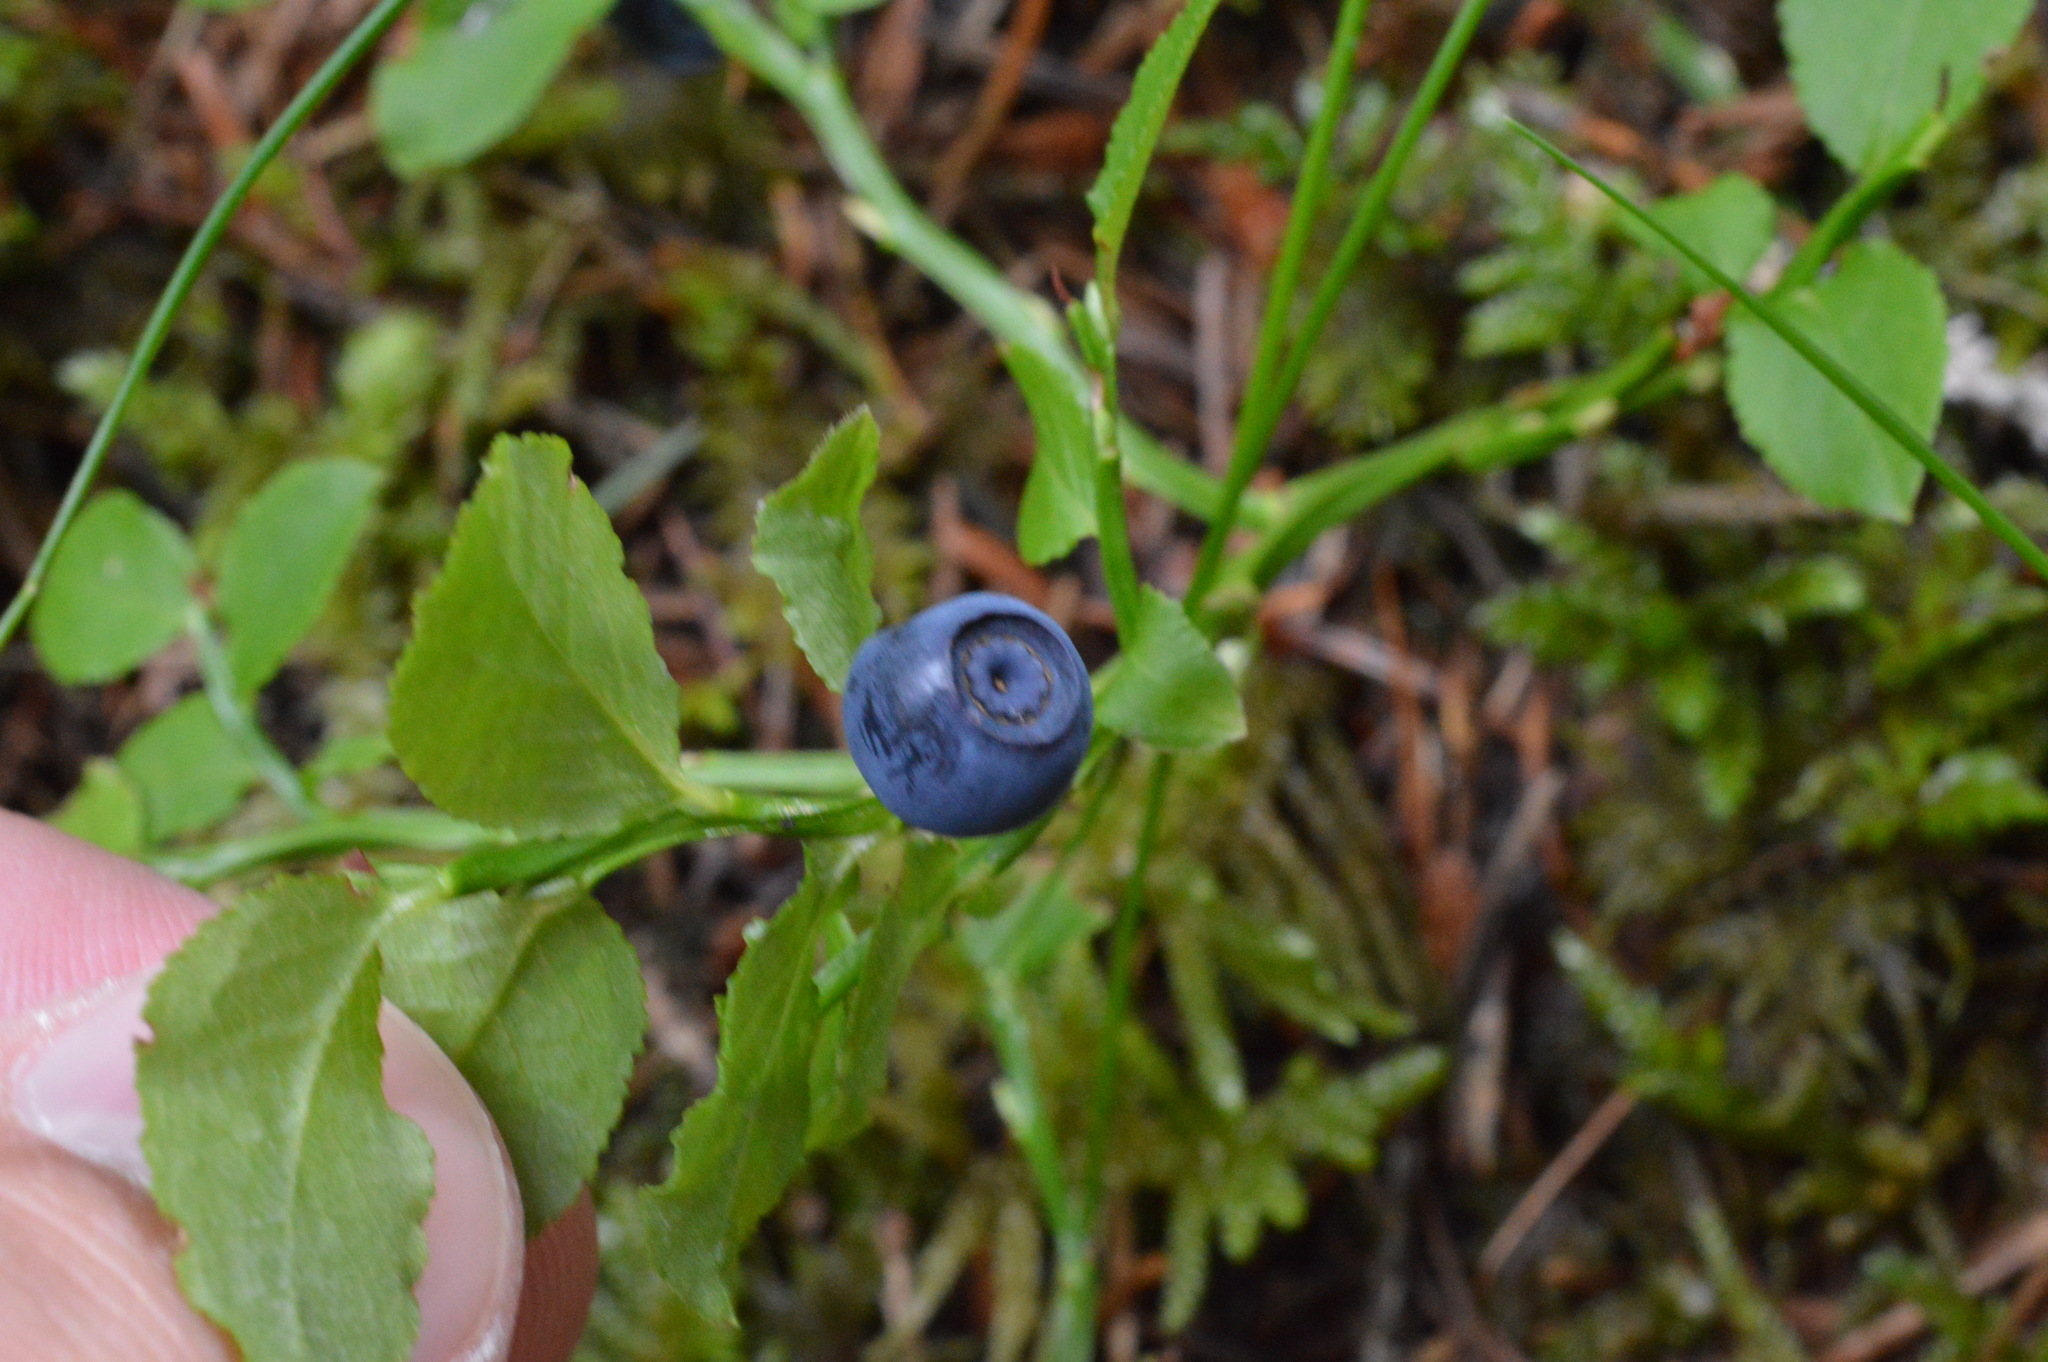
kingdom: Plantae
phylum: Tracheophyta
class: Magnoliopsida
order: Ericales
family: Ericaceae
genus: Vaccinium
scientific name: Vaccinium myrtillus
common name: Bilberry
